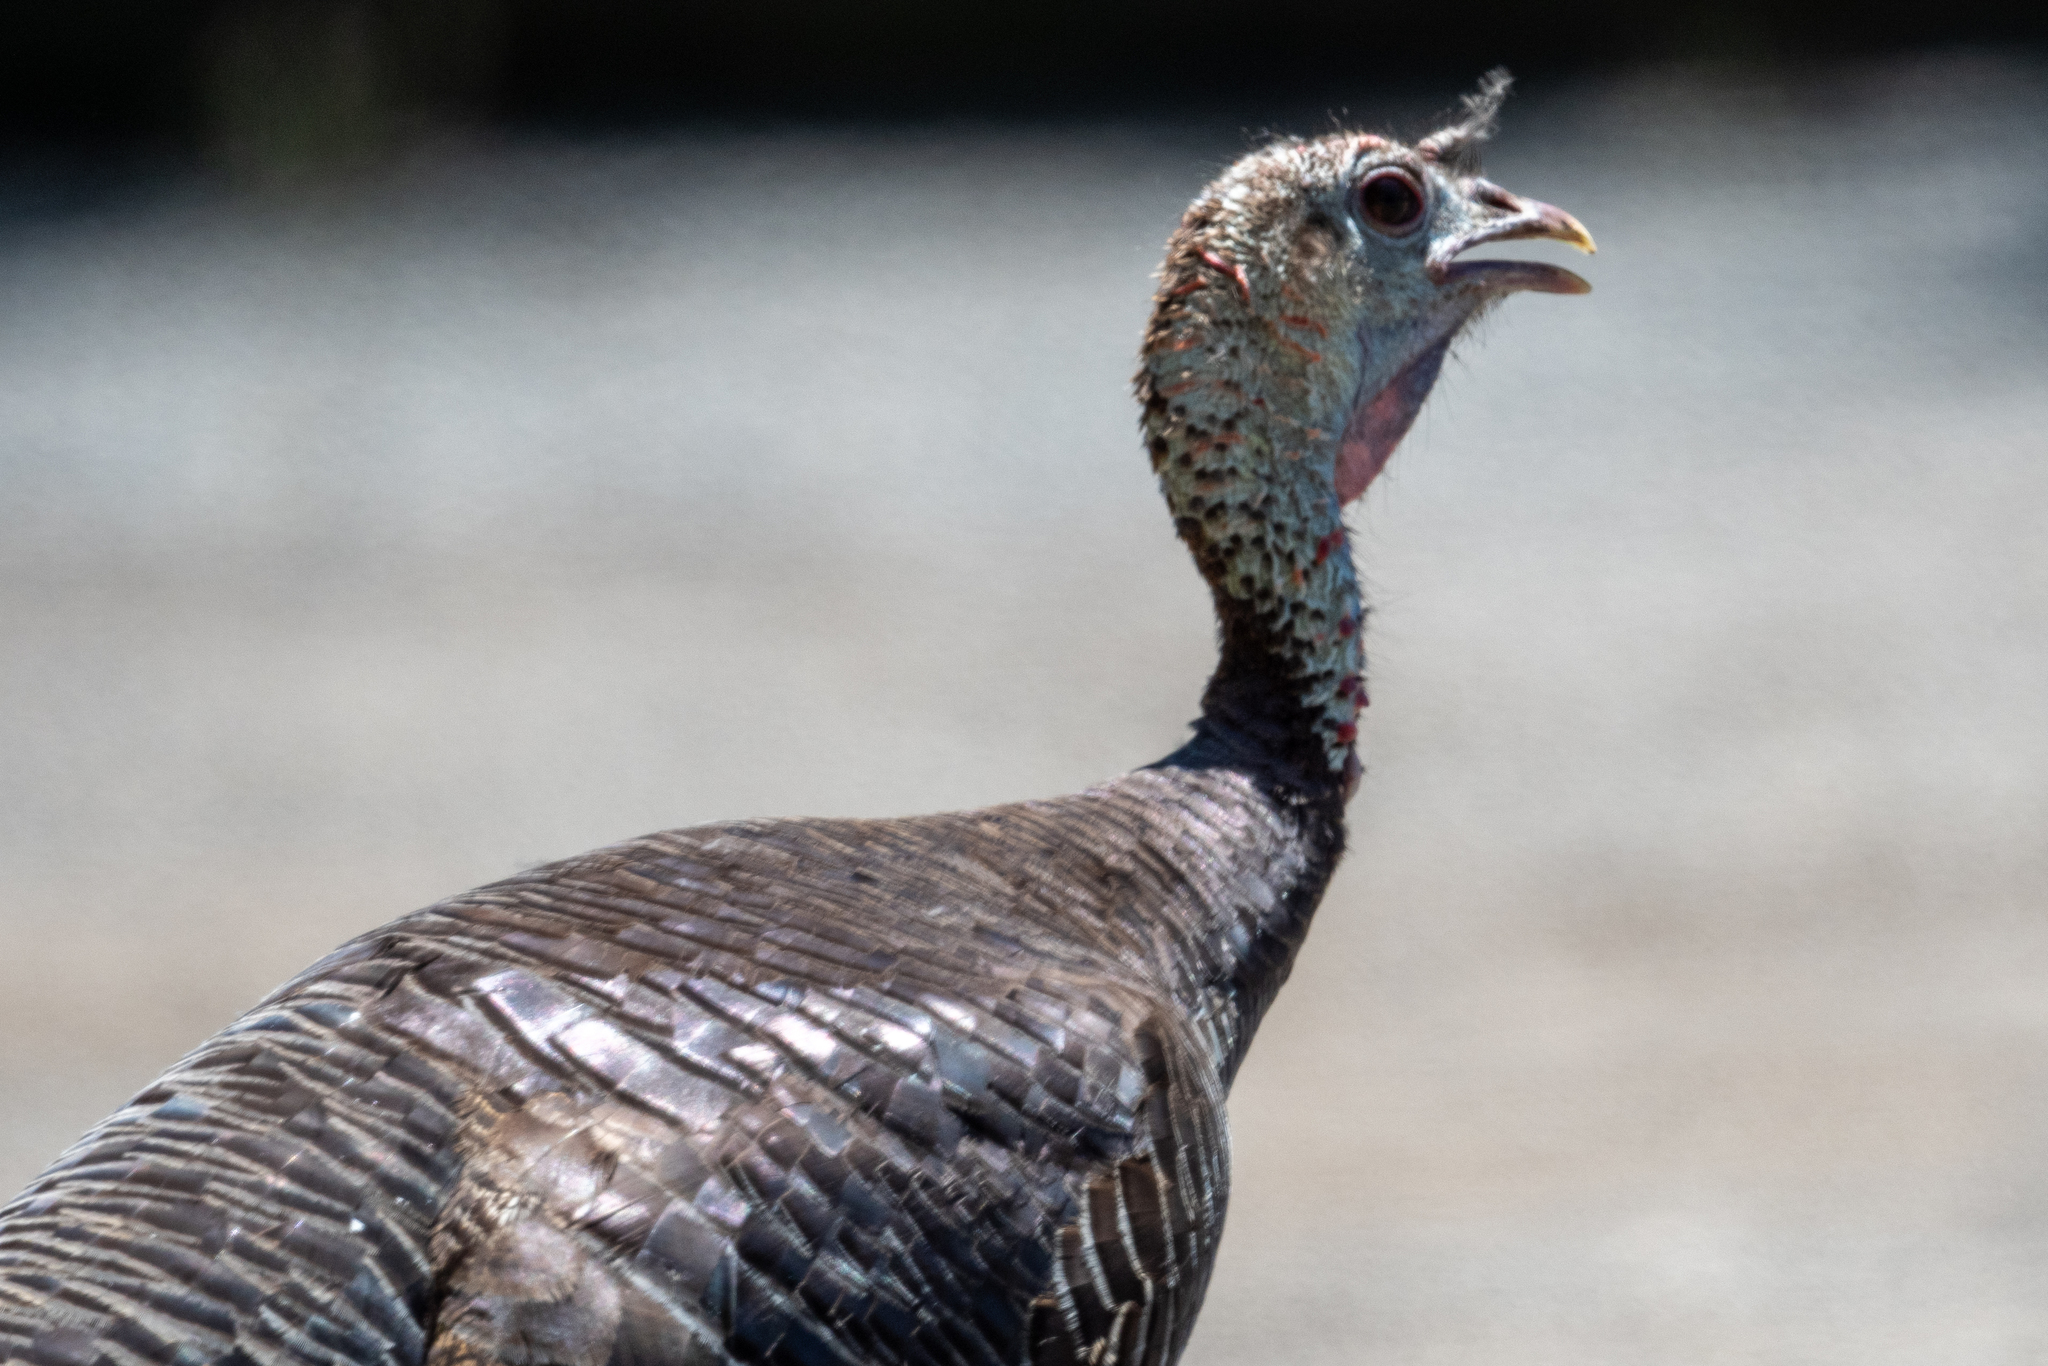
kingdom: Animalia
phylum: Chordata
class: Aves
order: Galliformes
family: Phasianidae
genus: Meleagris
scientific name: Meleagris gallopavo
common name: Wild turkey
